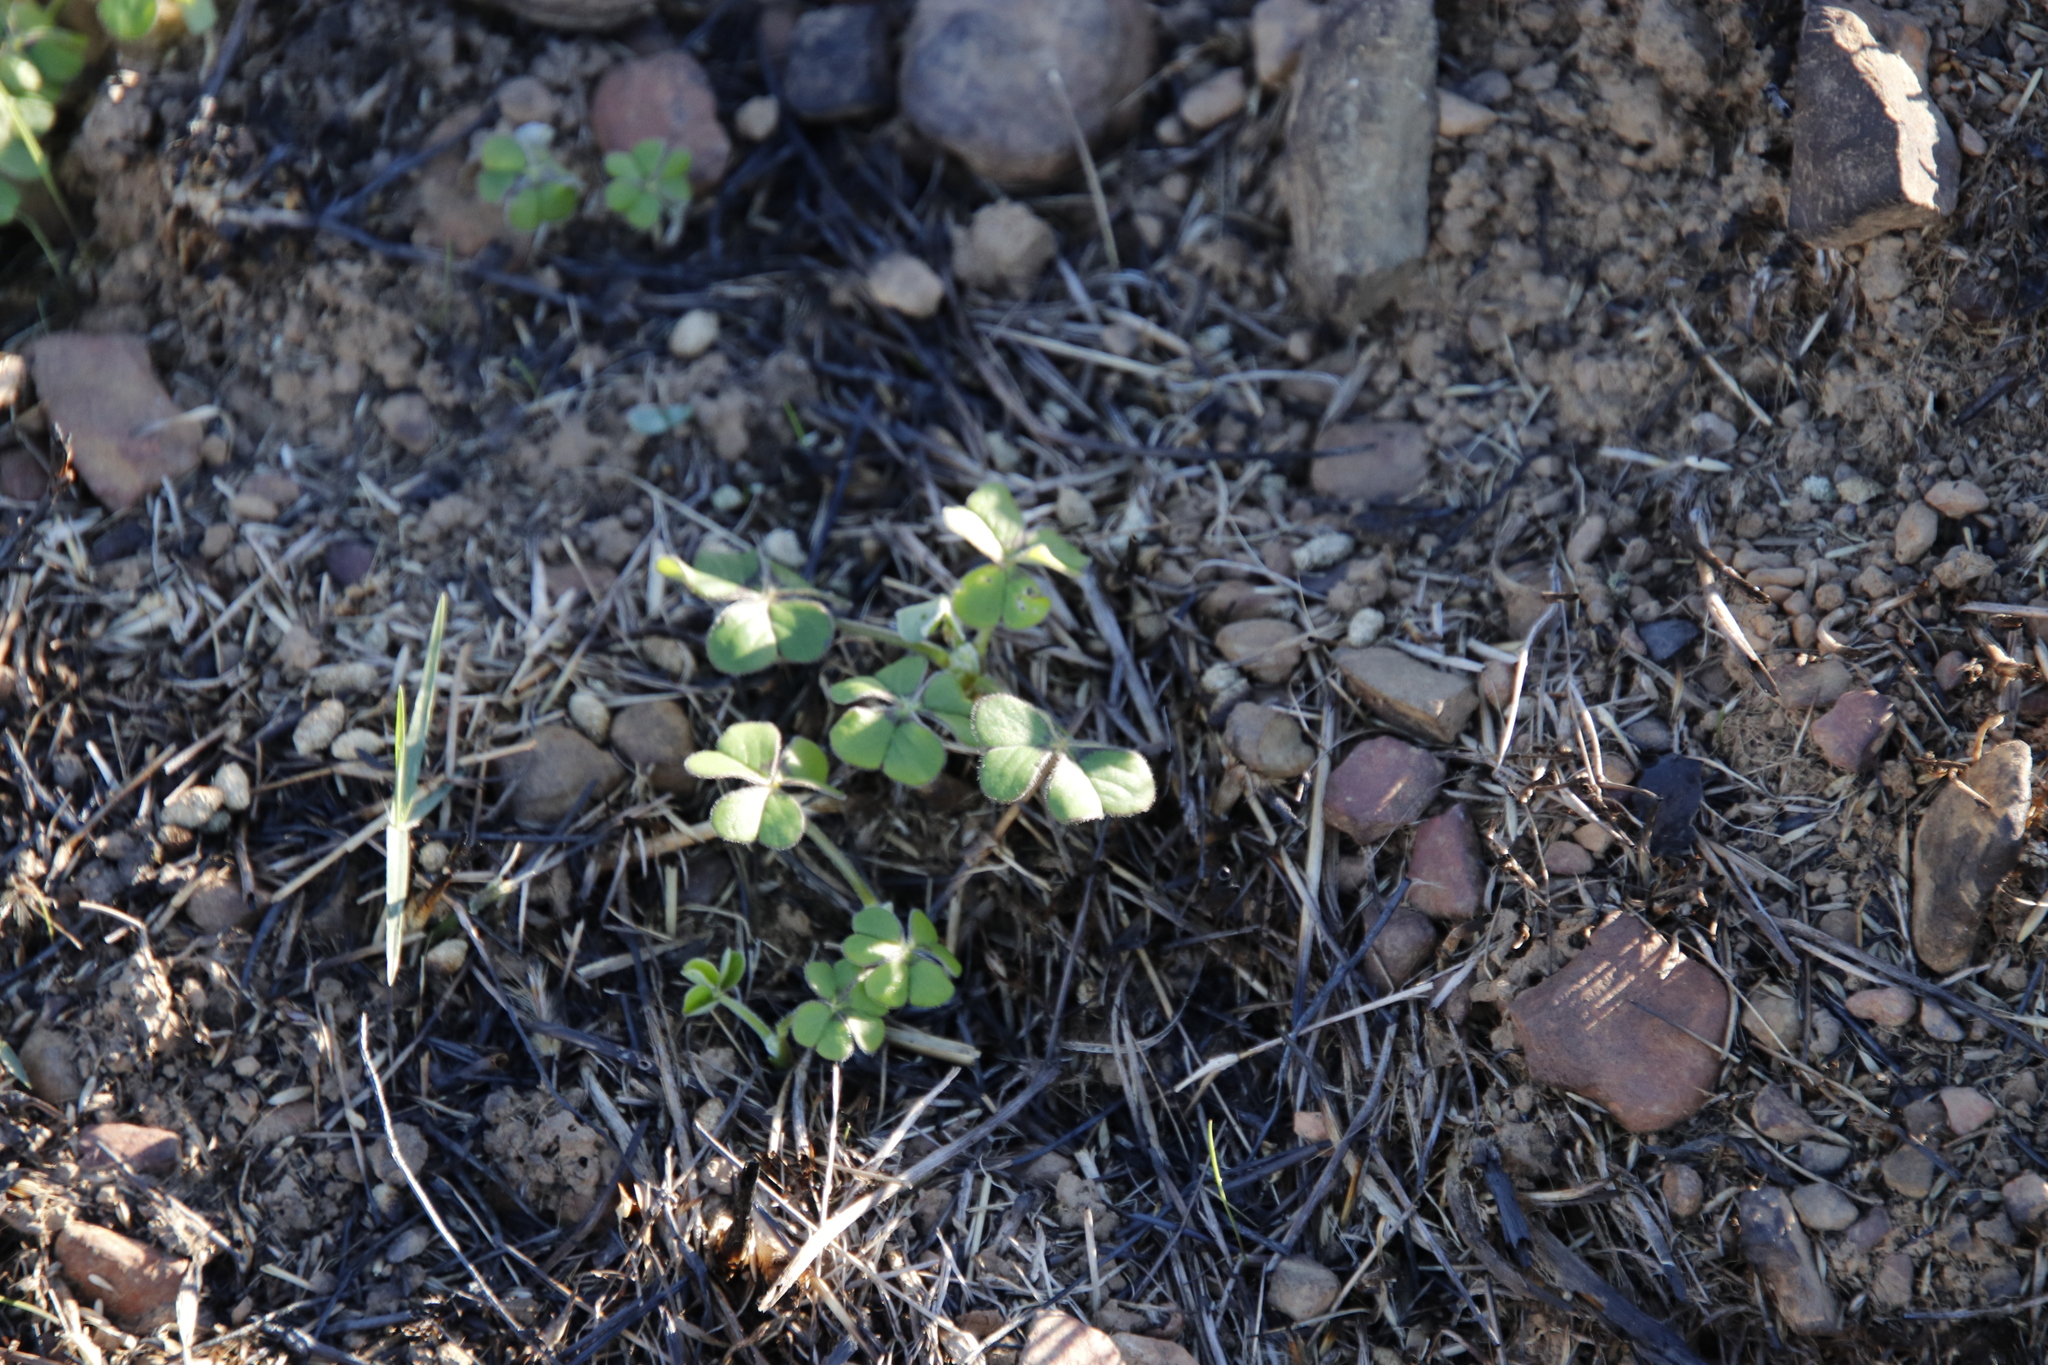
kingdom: Plantae
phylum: Tracheophyta
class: Magnoliopsida
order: Oxalidales
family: Oxalidaceae
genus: Oxalis
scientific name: Oxalis compressa
